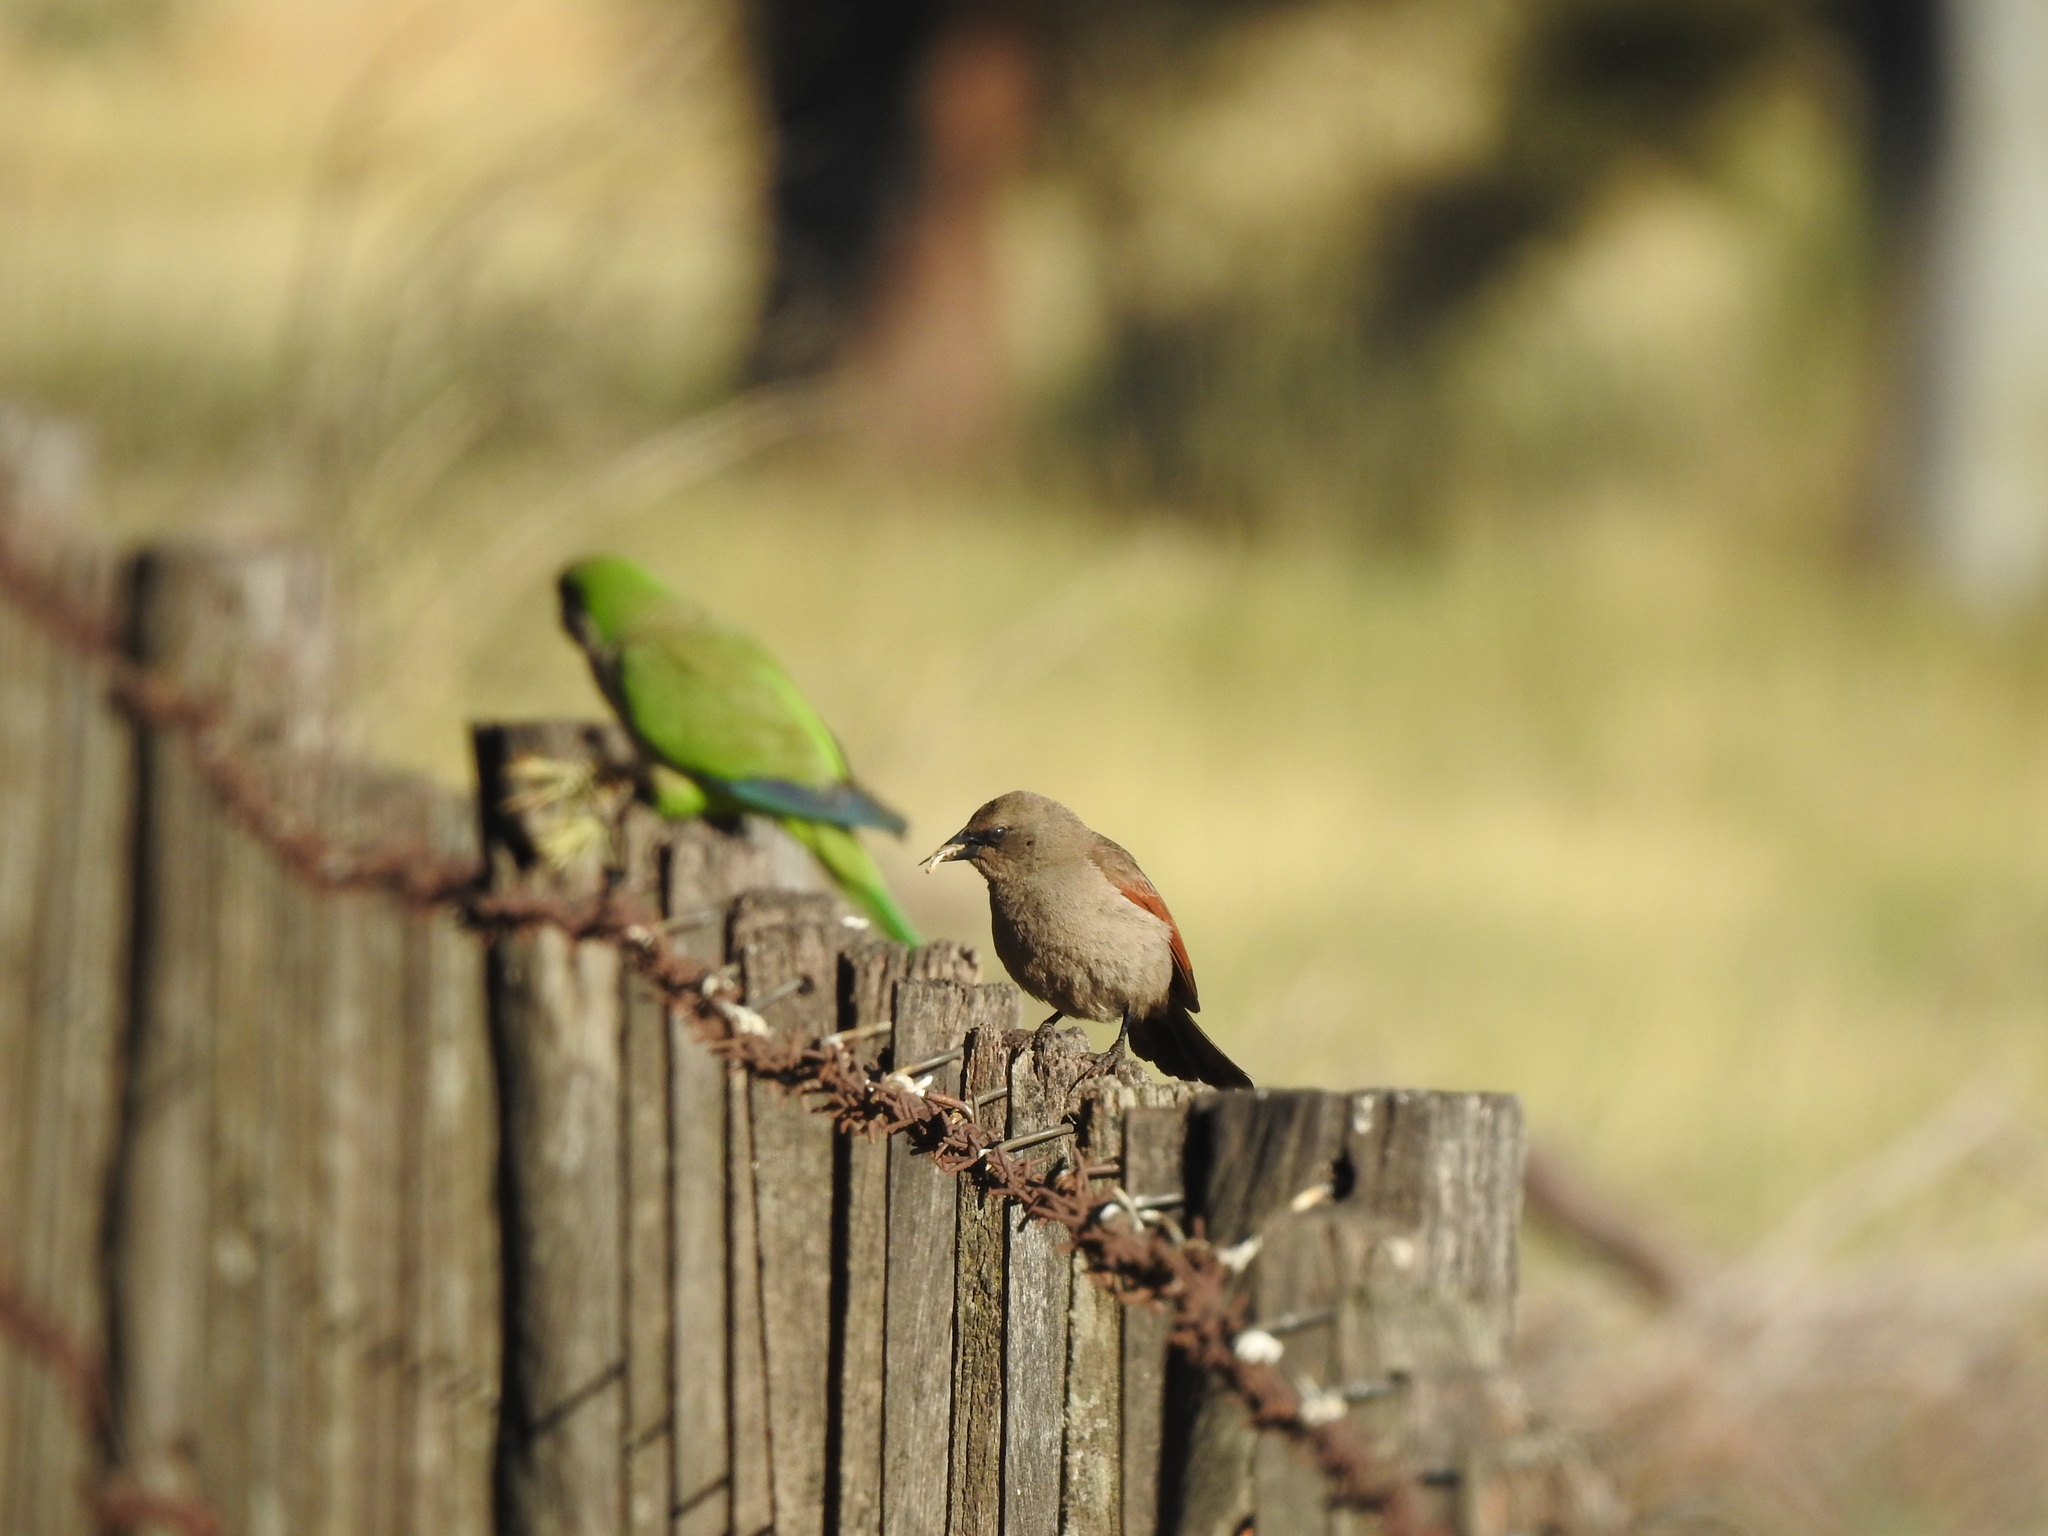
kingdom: Animalia
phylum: Chordata
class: Aves
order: Passeriformes
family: Icteridae
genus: Agelaioides
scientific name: Agelaioides badius
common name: Baywing
